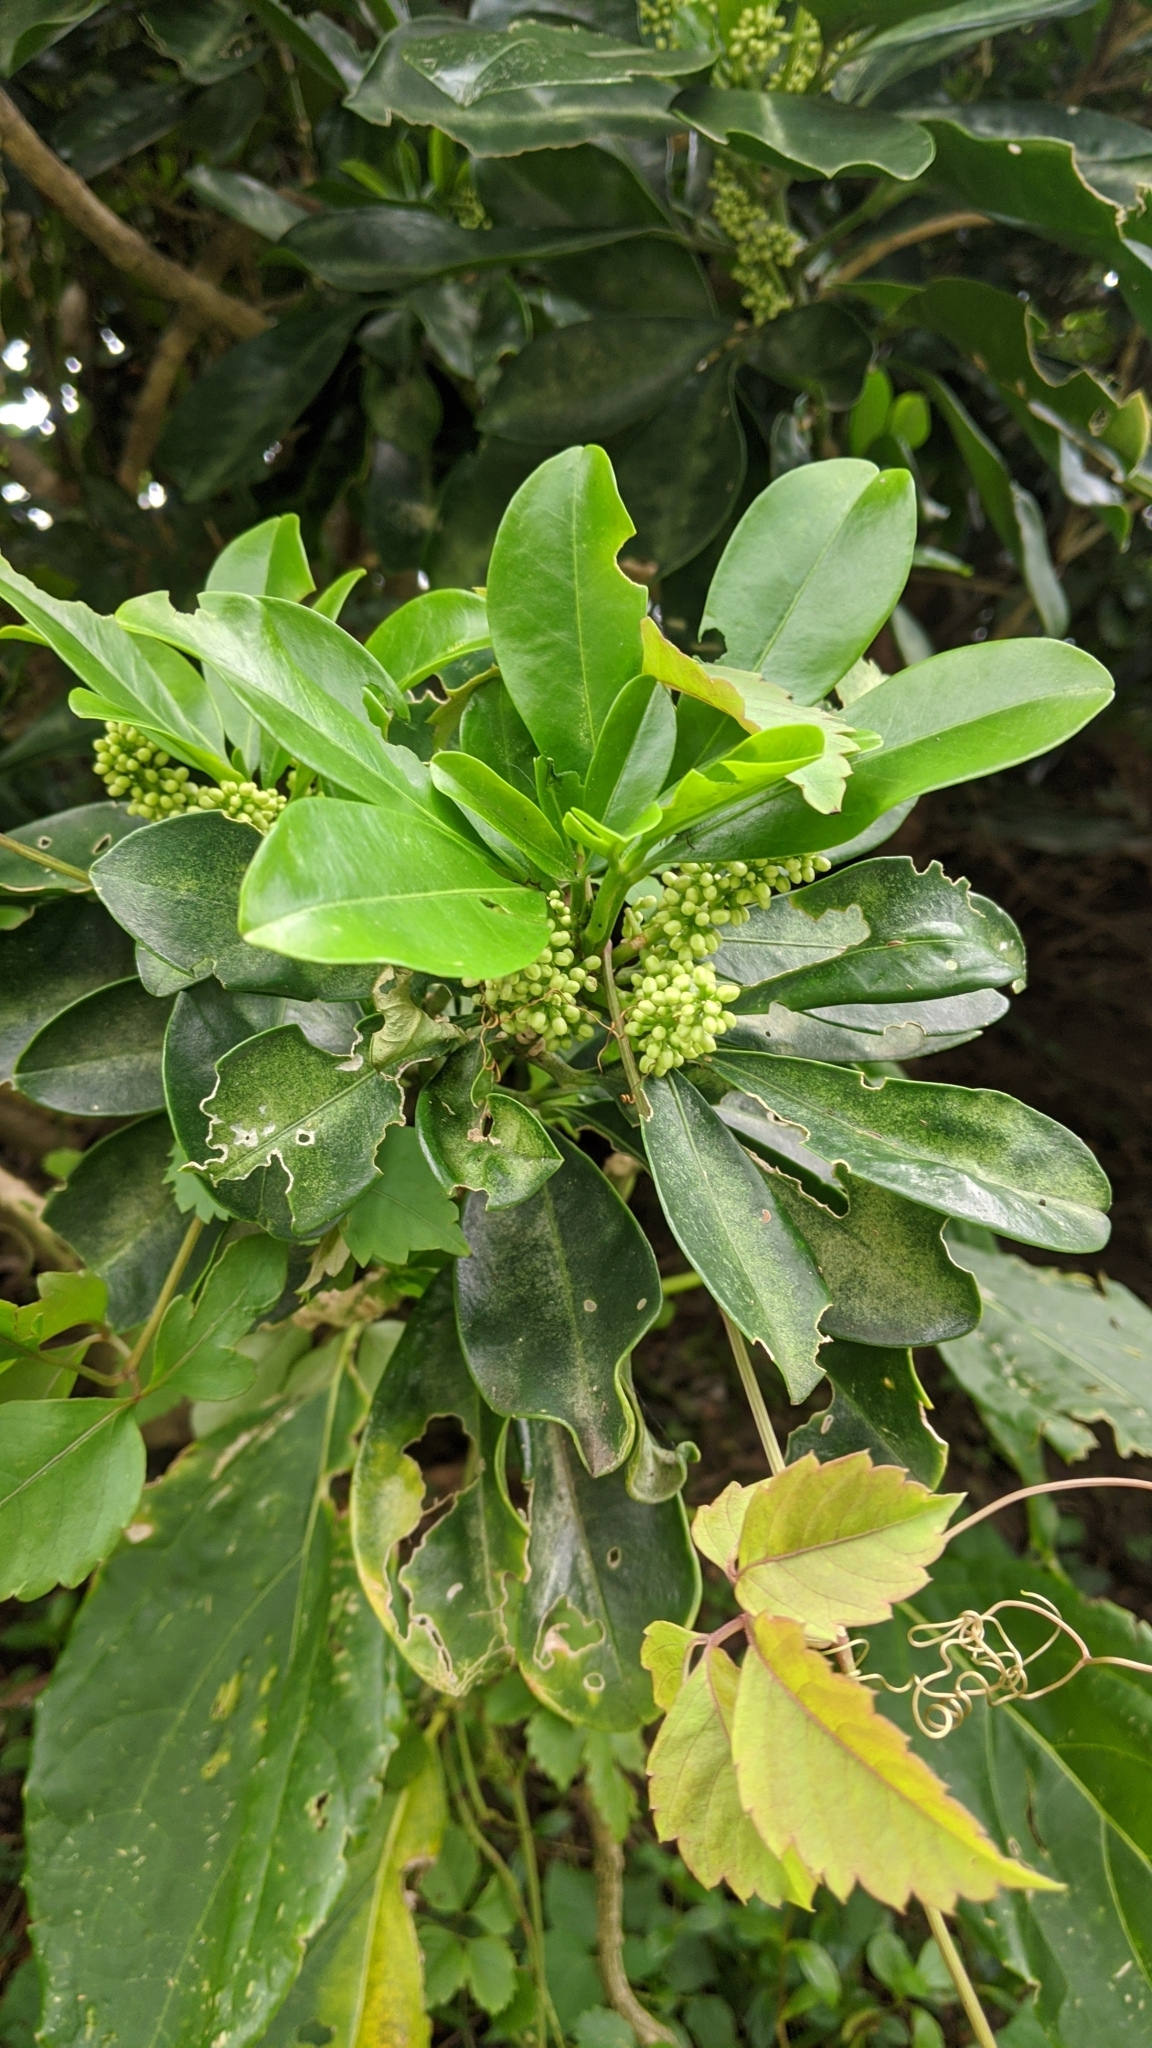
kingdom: Plantae
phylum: Tracheophyta
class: Magnoliopsida
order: Sapindales
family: Rutaceae
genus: Melicope
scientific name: Melicope triphylla
